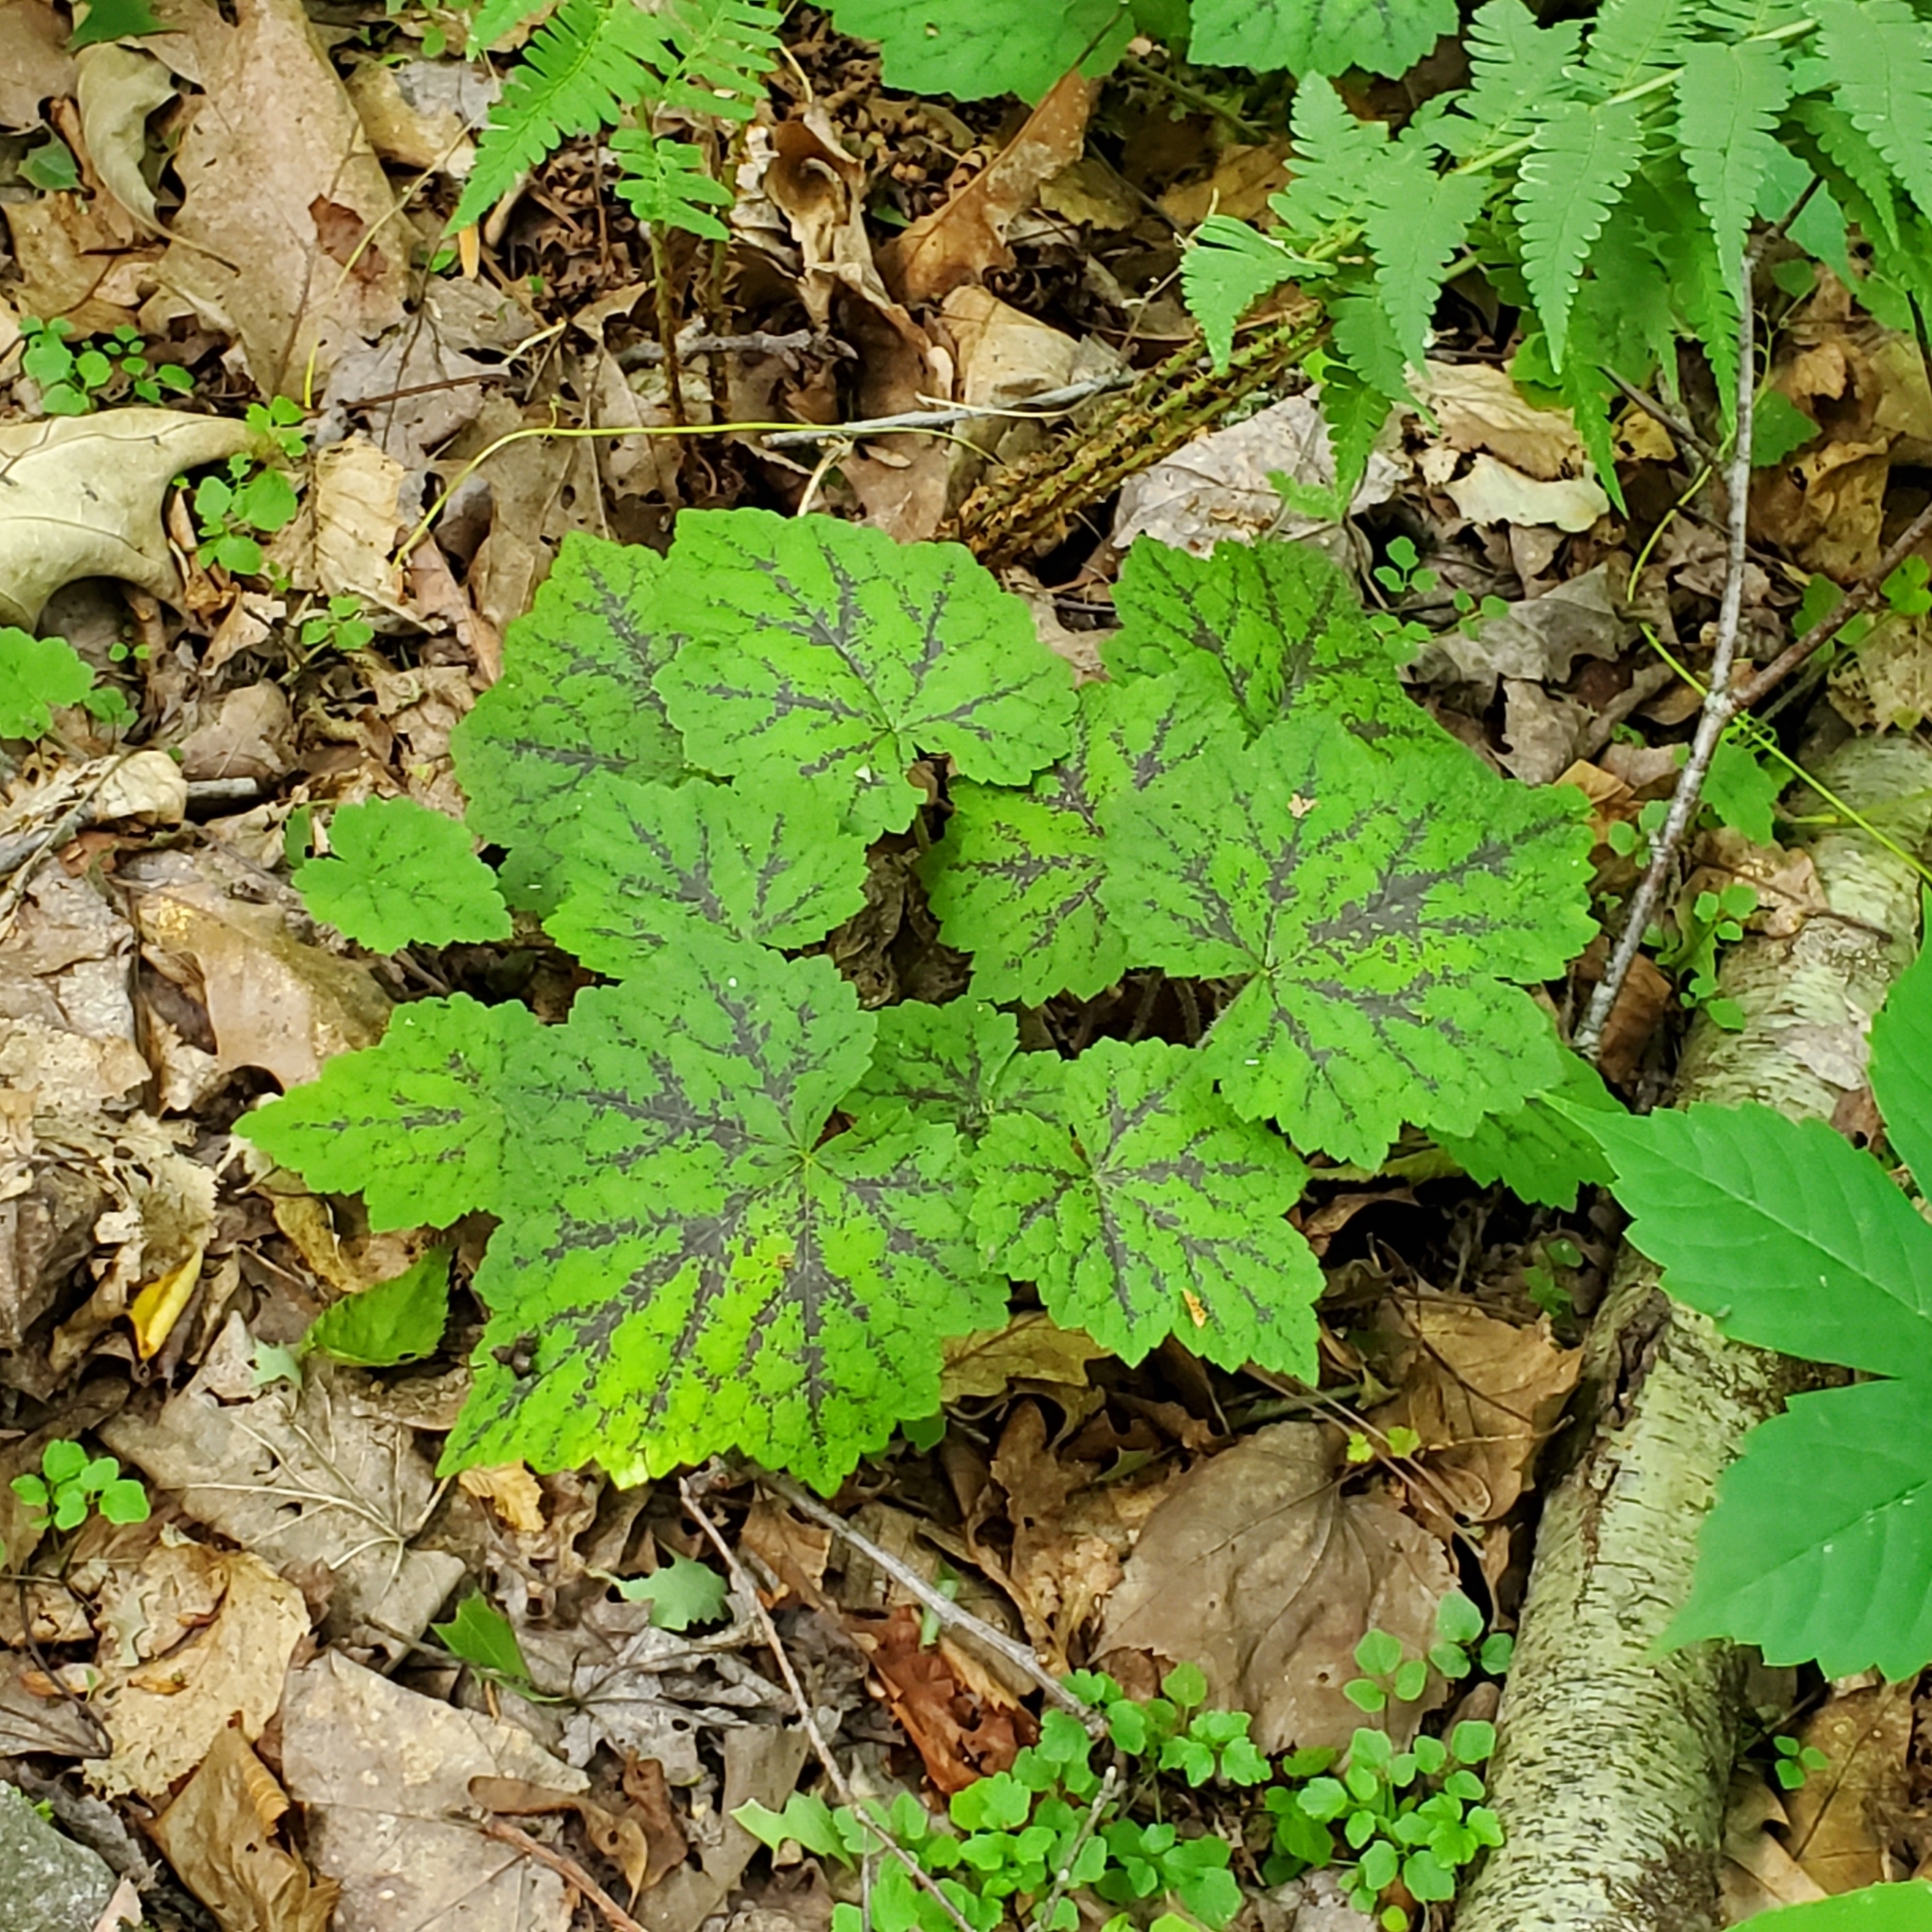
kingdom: Plantae
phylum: Tracheophyta
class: Magnoliopsida
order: Saxifragales
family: Saxifragaceae
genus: Tiarella
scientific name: Tiarella stolonifera
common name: Stoloniferous foamflower
